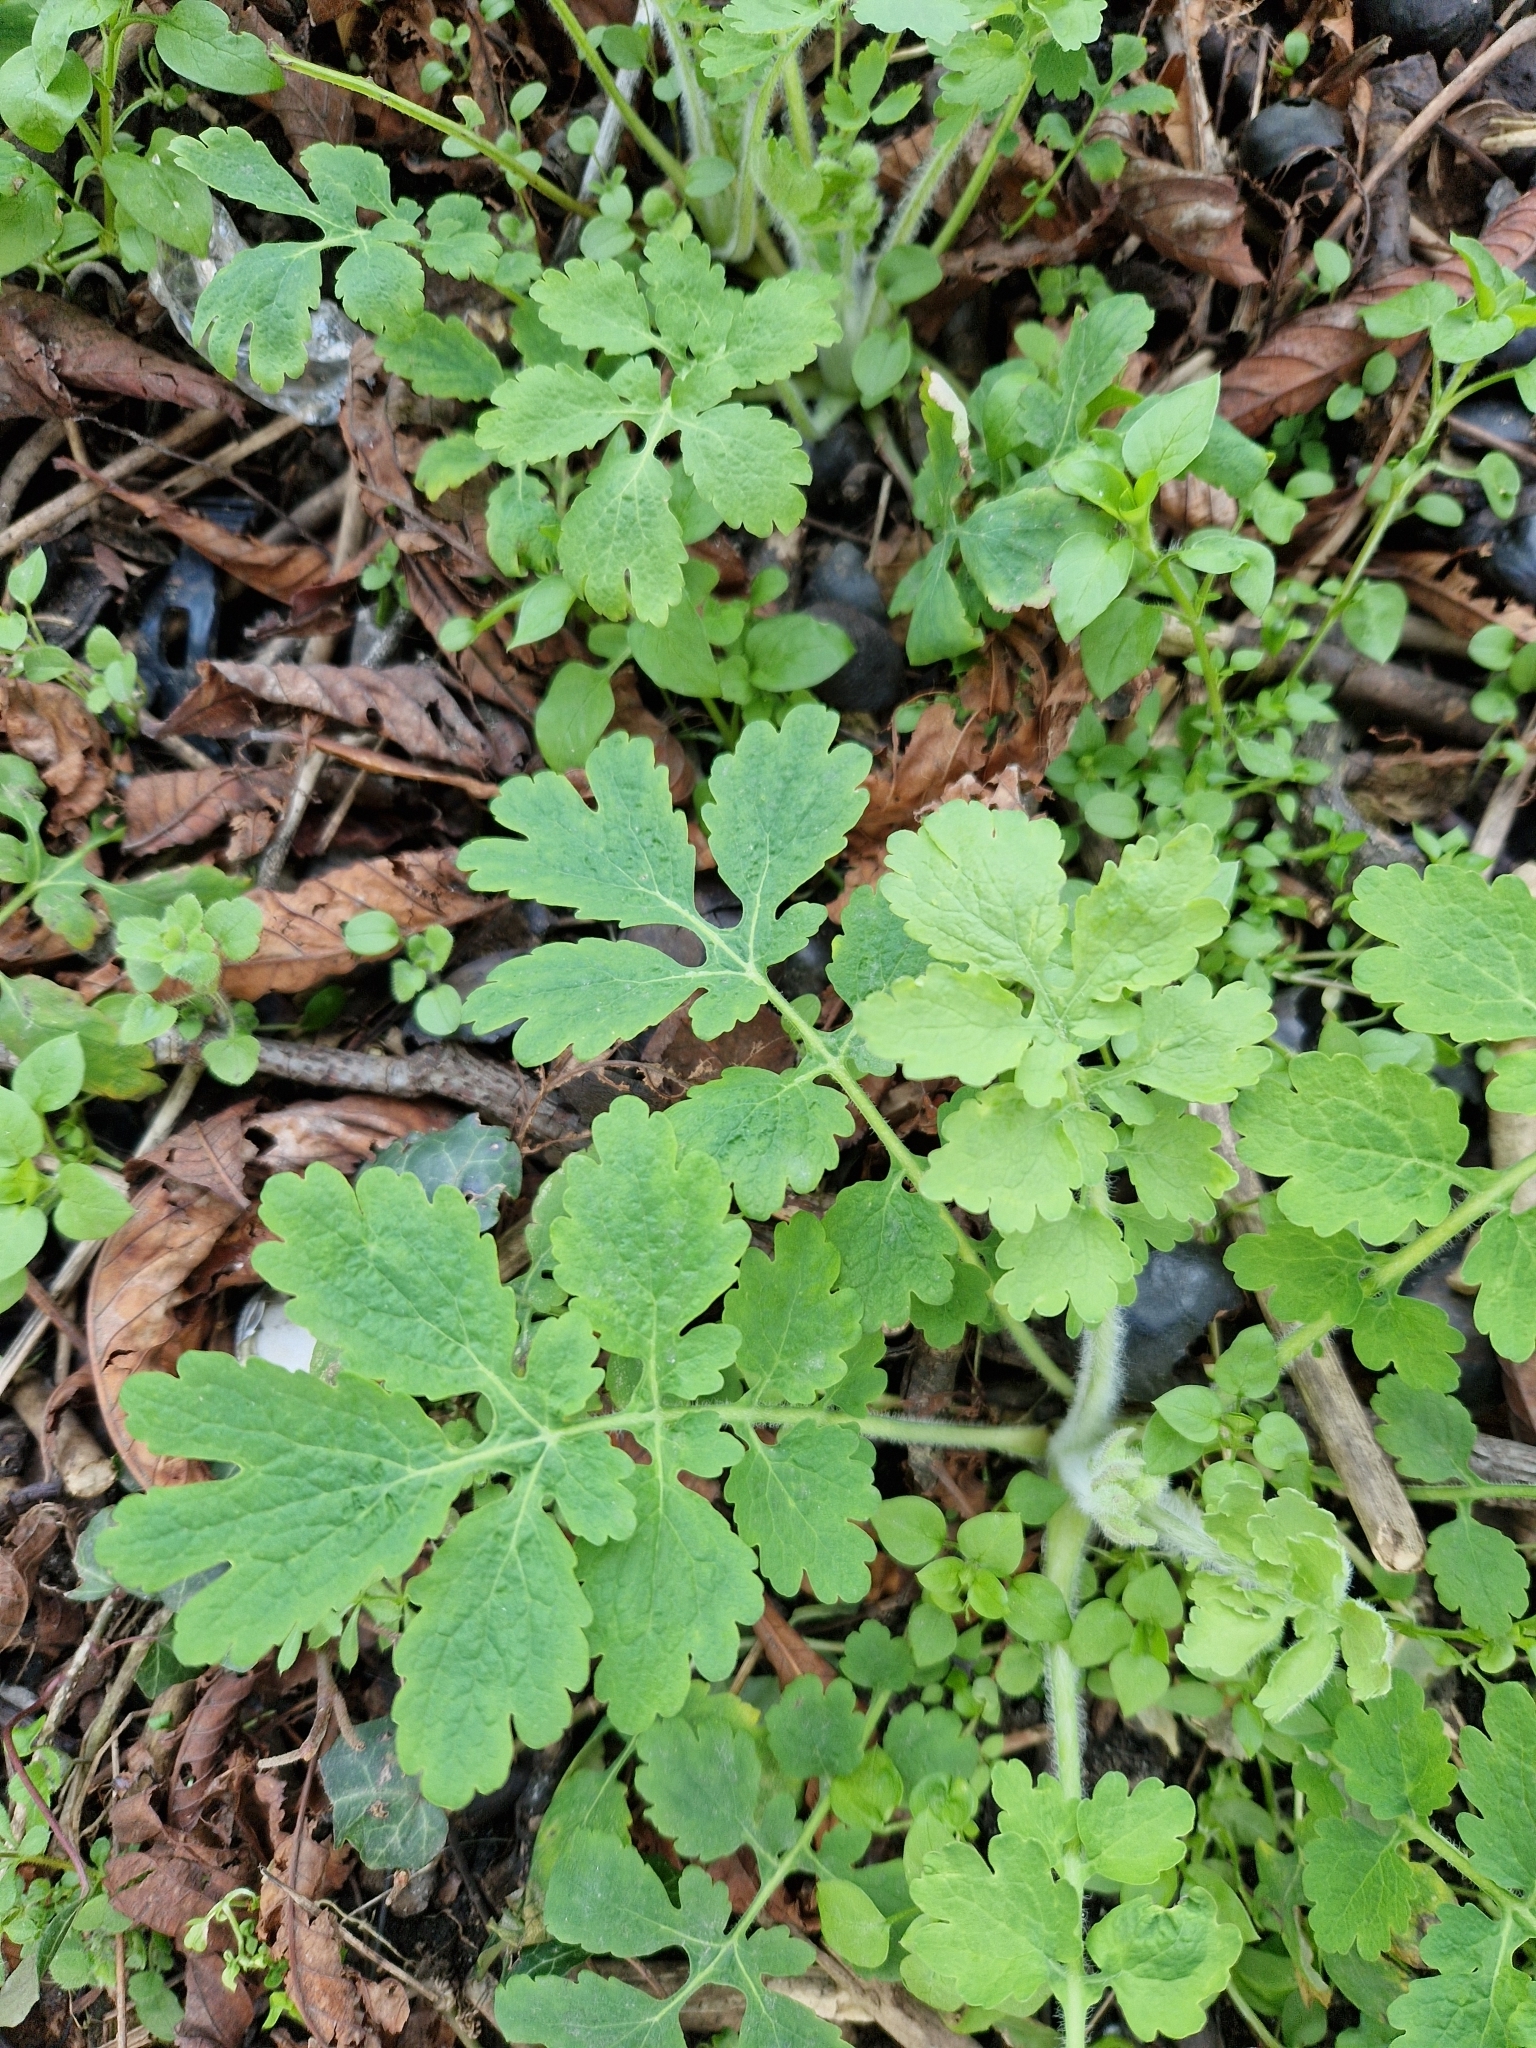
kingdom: Plantae
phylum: Tracheophyta
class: Magnoliopsida
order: Ranunculales
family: Papaveraceae
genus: Chelidonium
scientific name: Chelidonium majus
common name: Greater celandine
